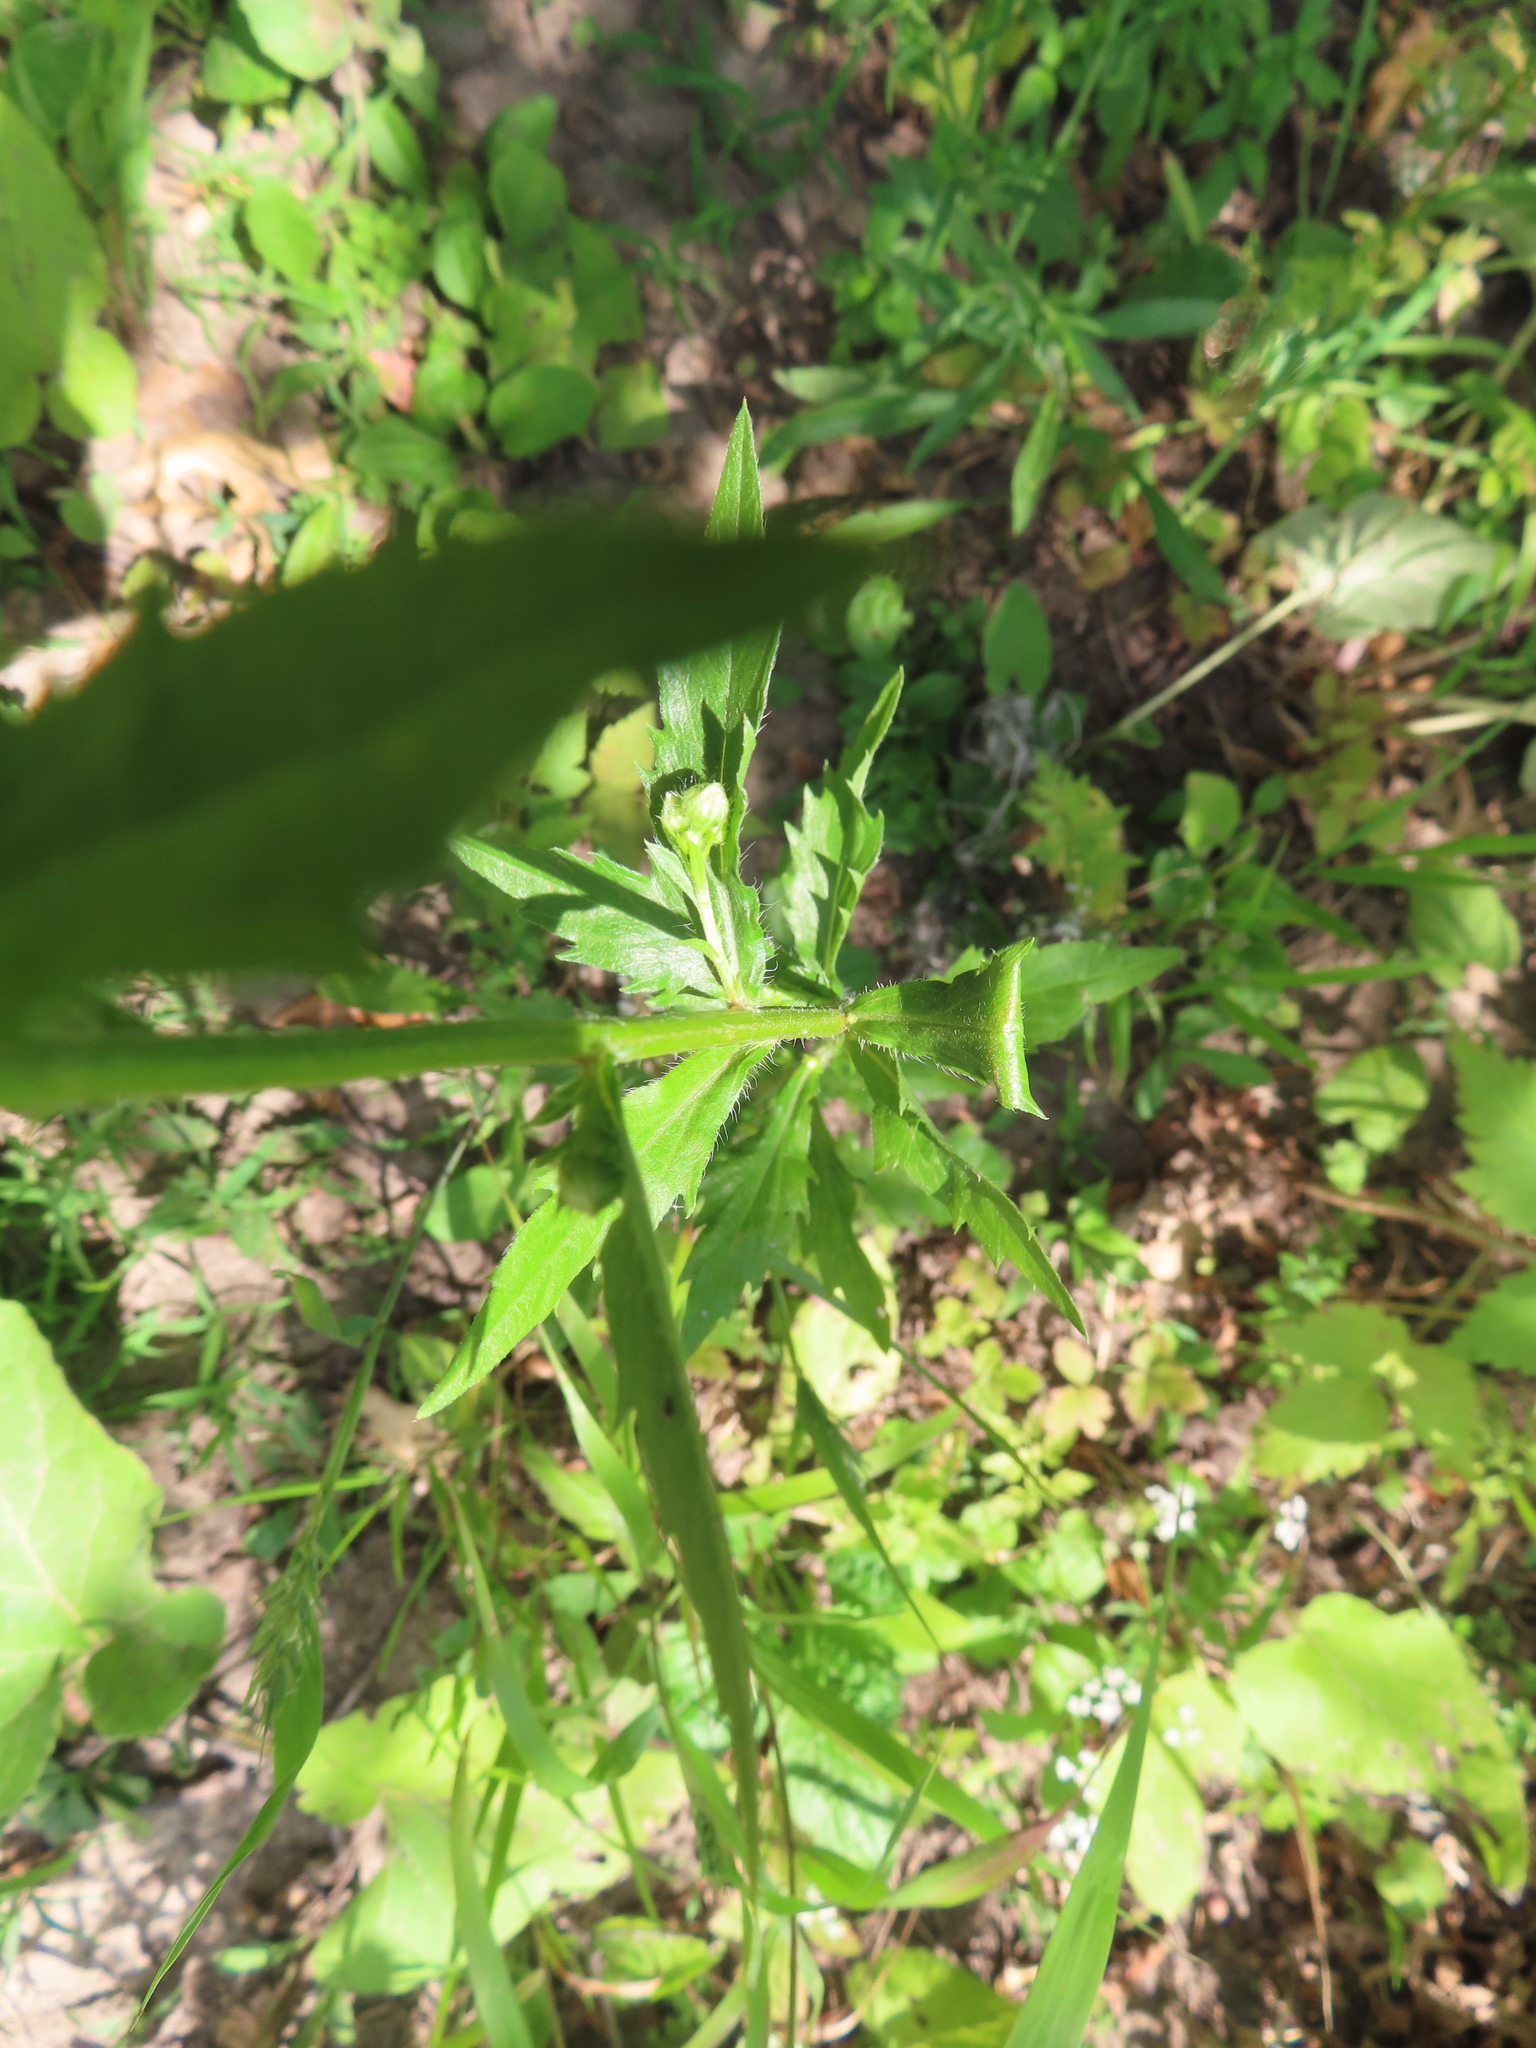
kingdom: Plantae
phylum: Tracheophyta
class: Magnoliopsida
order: Asterales
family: Asteraceae
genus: Erigeron
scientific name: Erigeron annuus
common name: Tall fleabane
